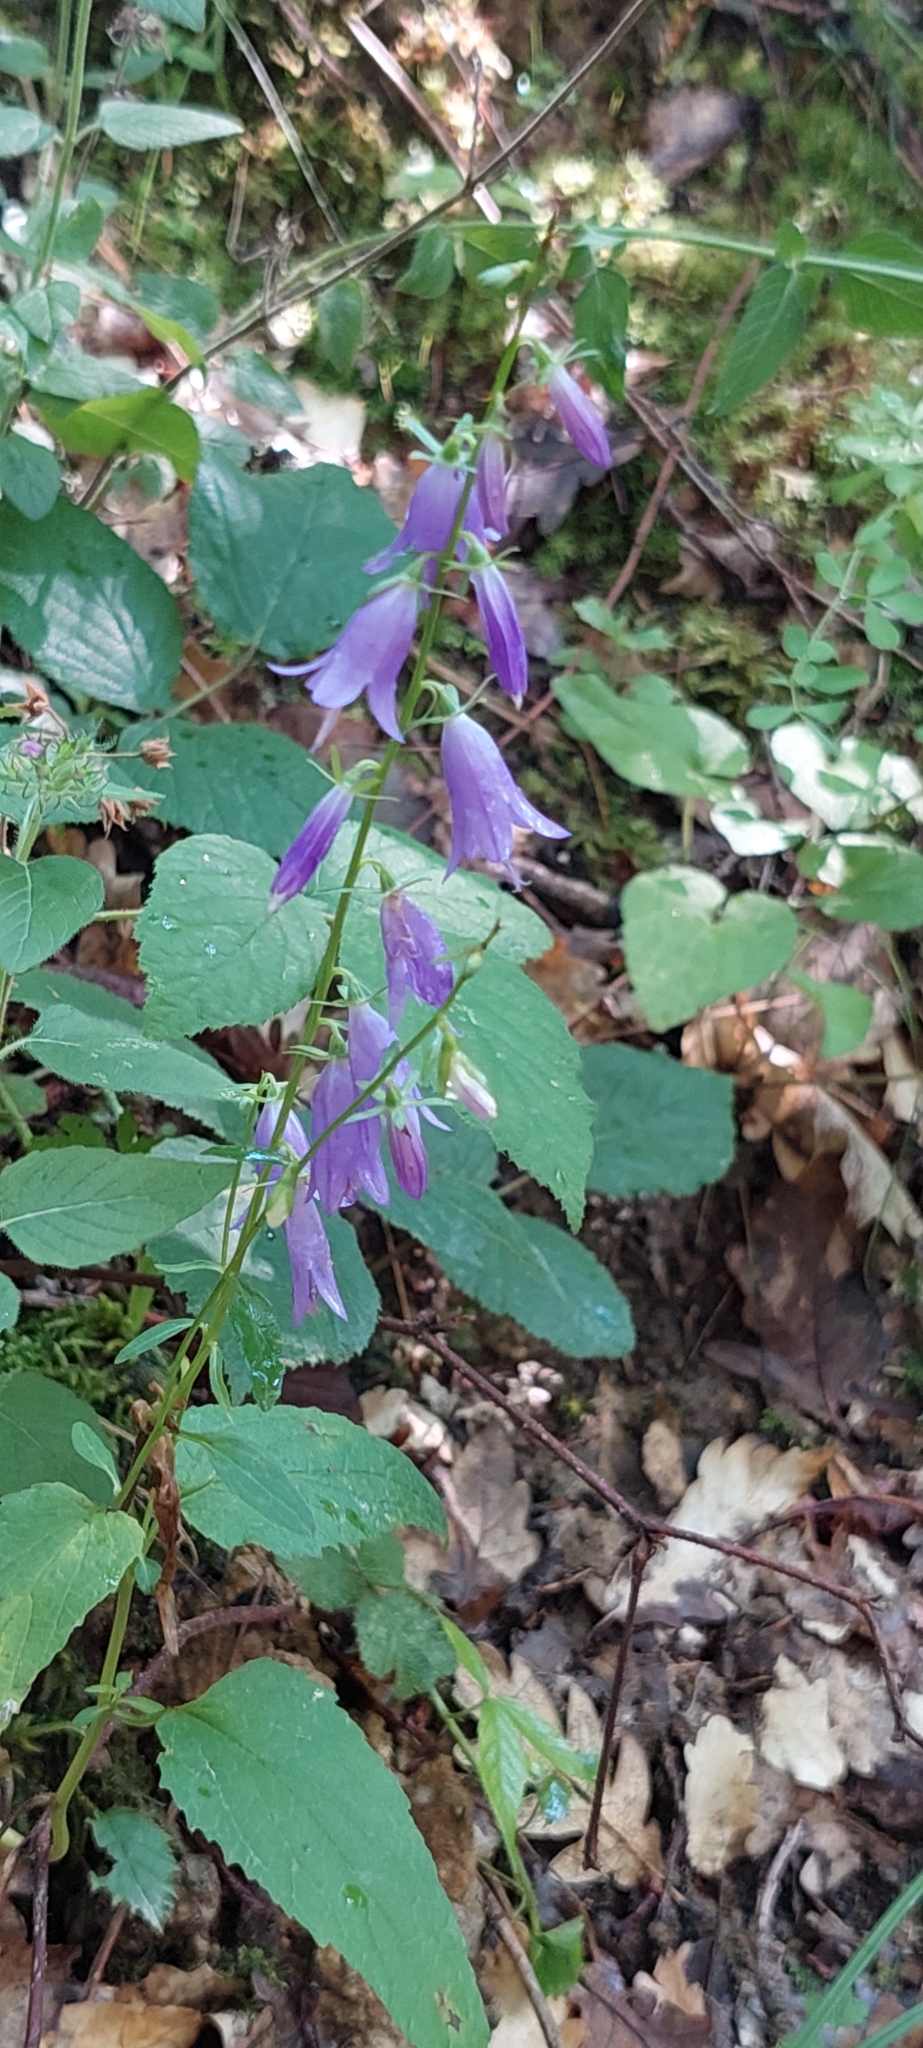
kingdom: Plantae
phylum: Tracheophyta
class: Magnoliopsida
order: Asterales
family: Campanulaceae
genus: Campanula
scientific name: Campanula rapunculoides
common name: Creeping bellflower
